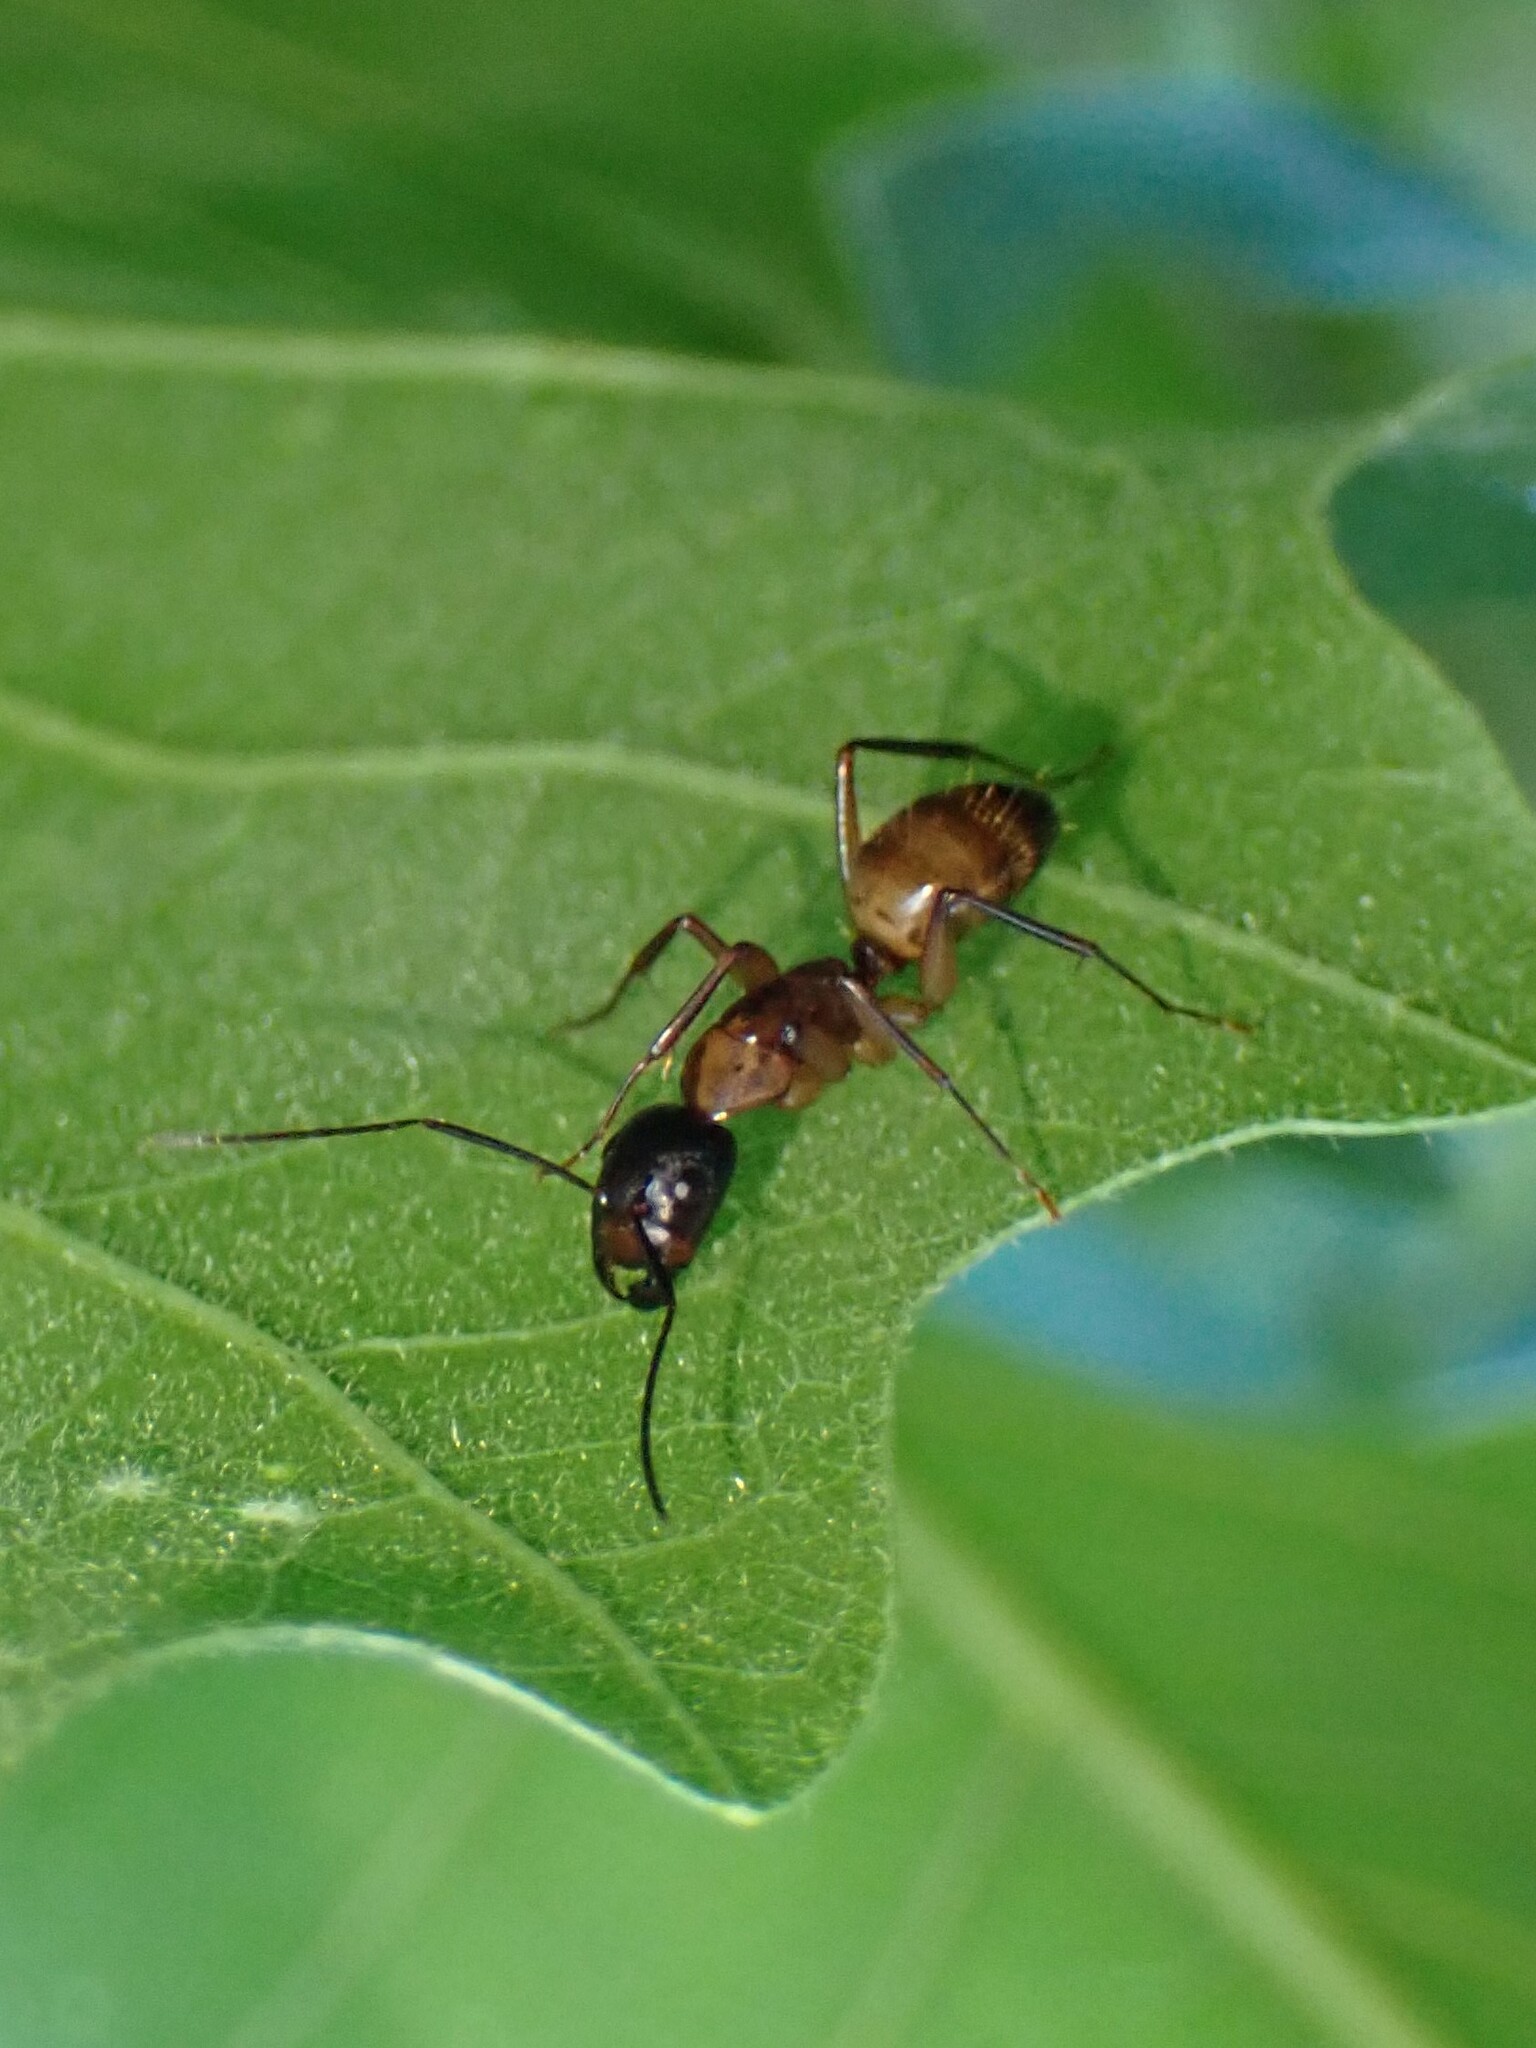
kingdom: Animalia
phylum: Arthropoda
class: Insecta
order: Hymenoptera
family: Formicidae
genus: Camponotus
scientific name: Camponotus americanus
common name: American carpenter ant
